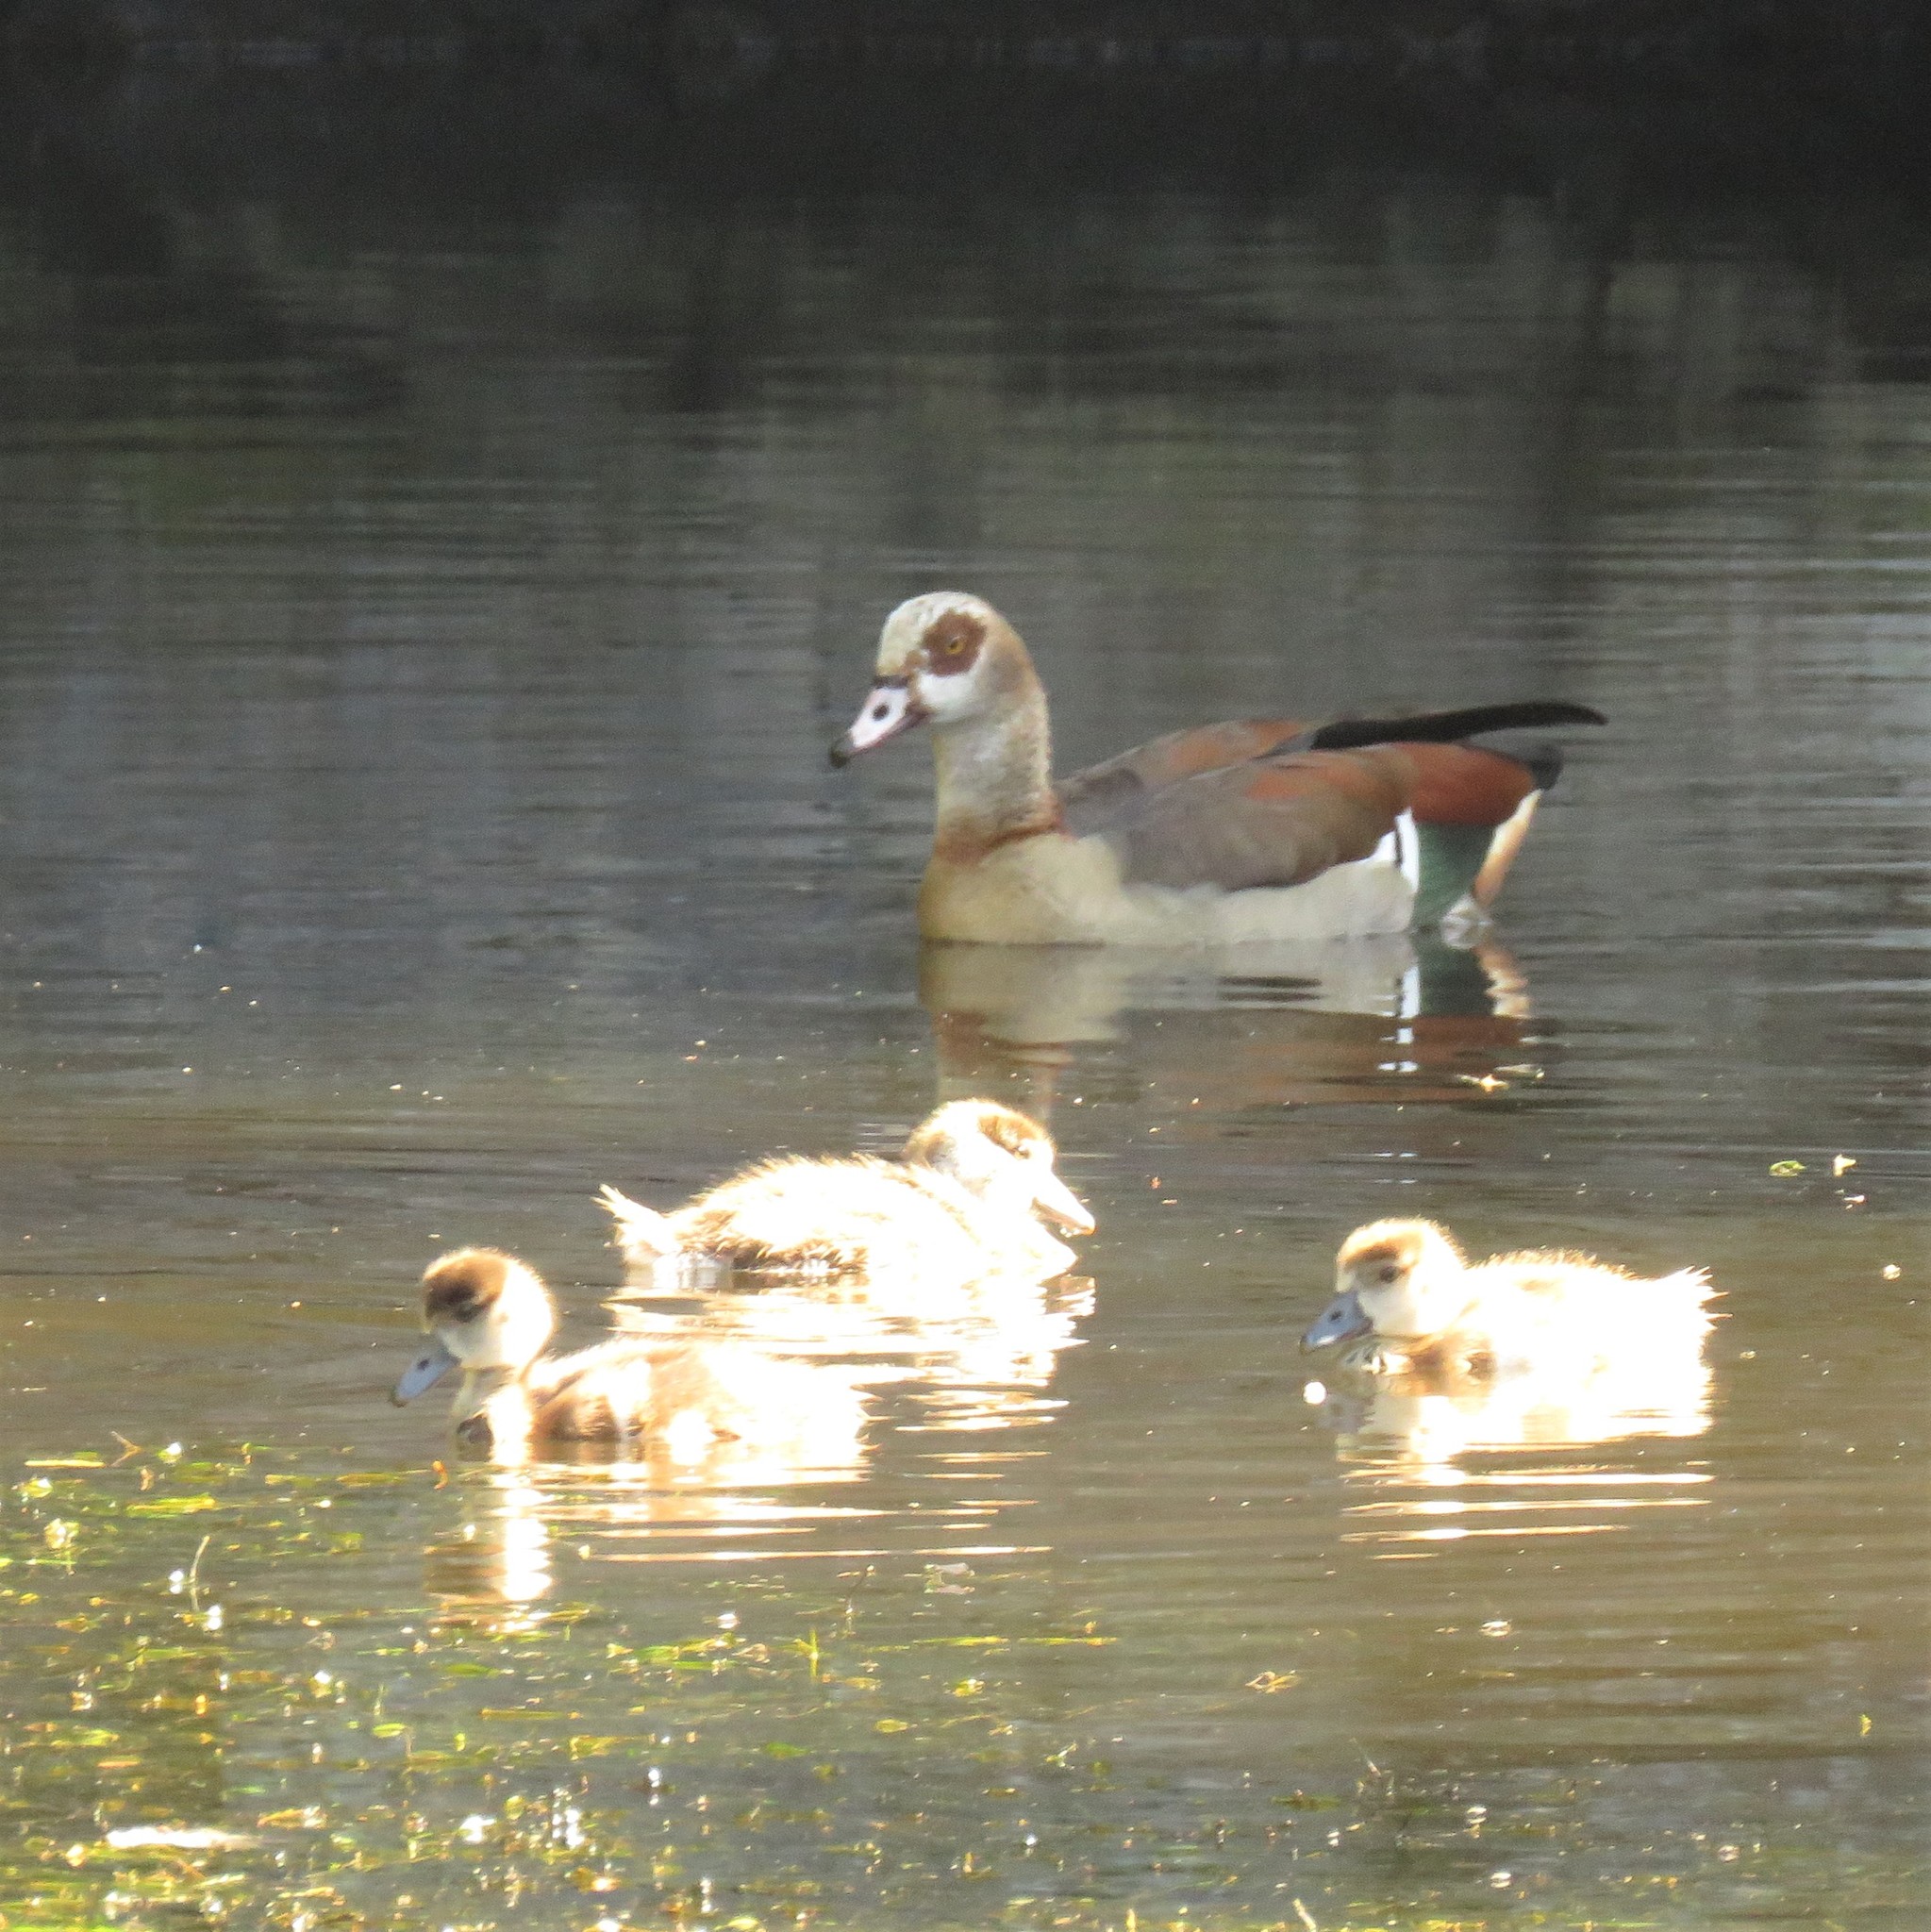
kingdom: Animalia
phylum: Chordata
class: Aves
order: Anseriformes
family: Anatidae
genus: Alopochen
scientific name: Alopochen aegyptiaca
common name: Egyptian goose
